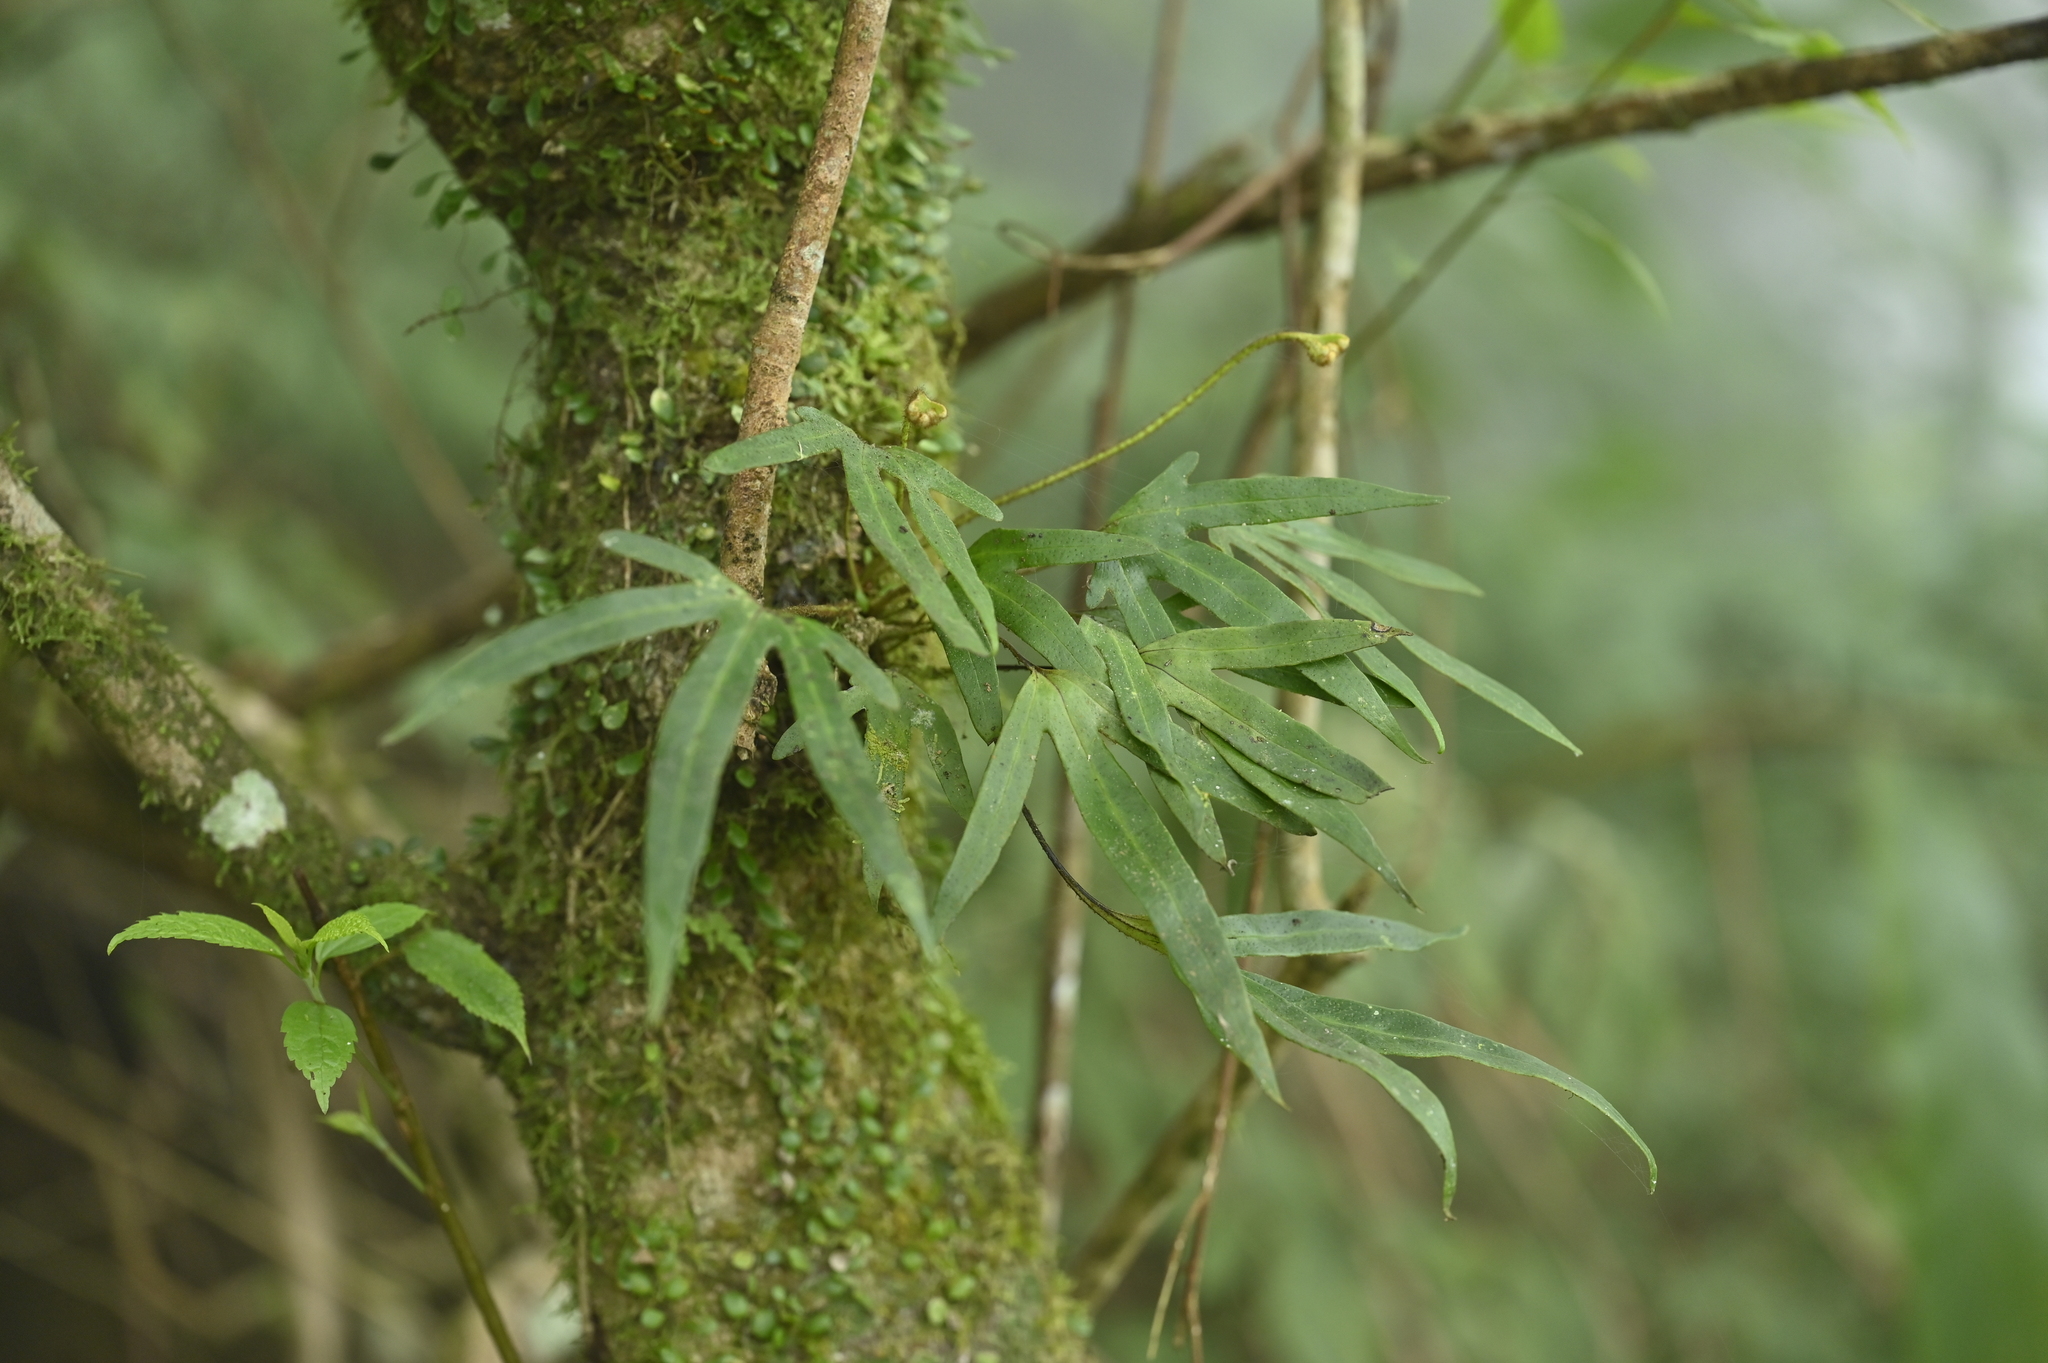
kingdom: Plantae
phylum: Tracheophyta
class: Polypodiopsida
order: Polypodiales
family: Polypodiaceae
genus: Pyrrosia
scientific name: Pyrrosia polydactyla
